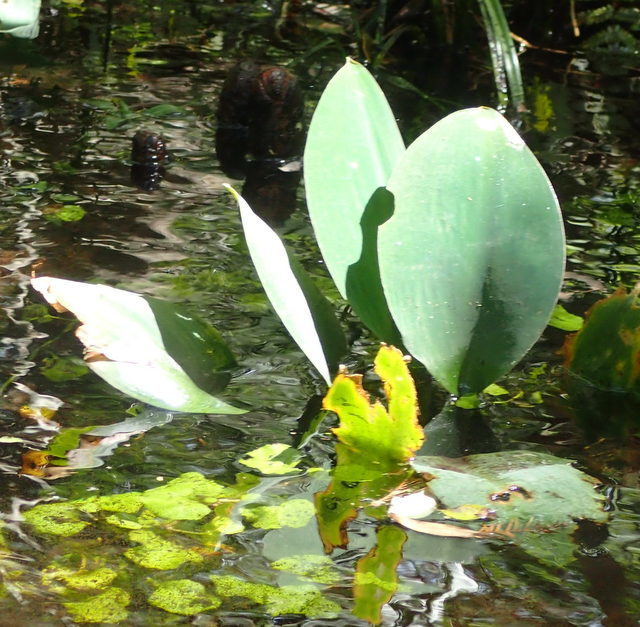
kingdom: Plantae
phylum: Tracheophyta
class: Liliopsida
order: Alismatales
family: Araceae
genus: Orontium
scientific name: Orontium aquaticum
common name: Golden-club
